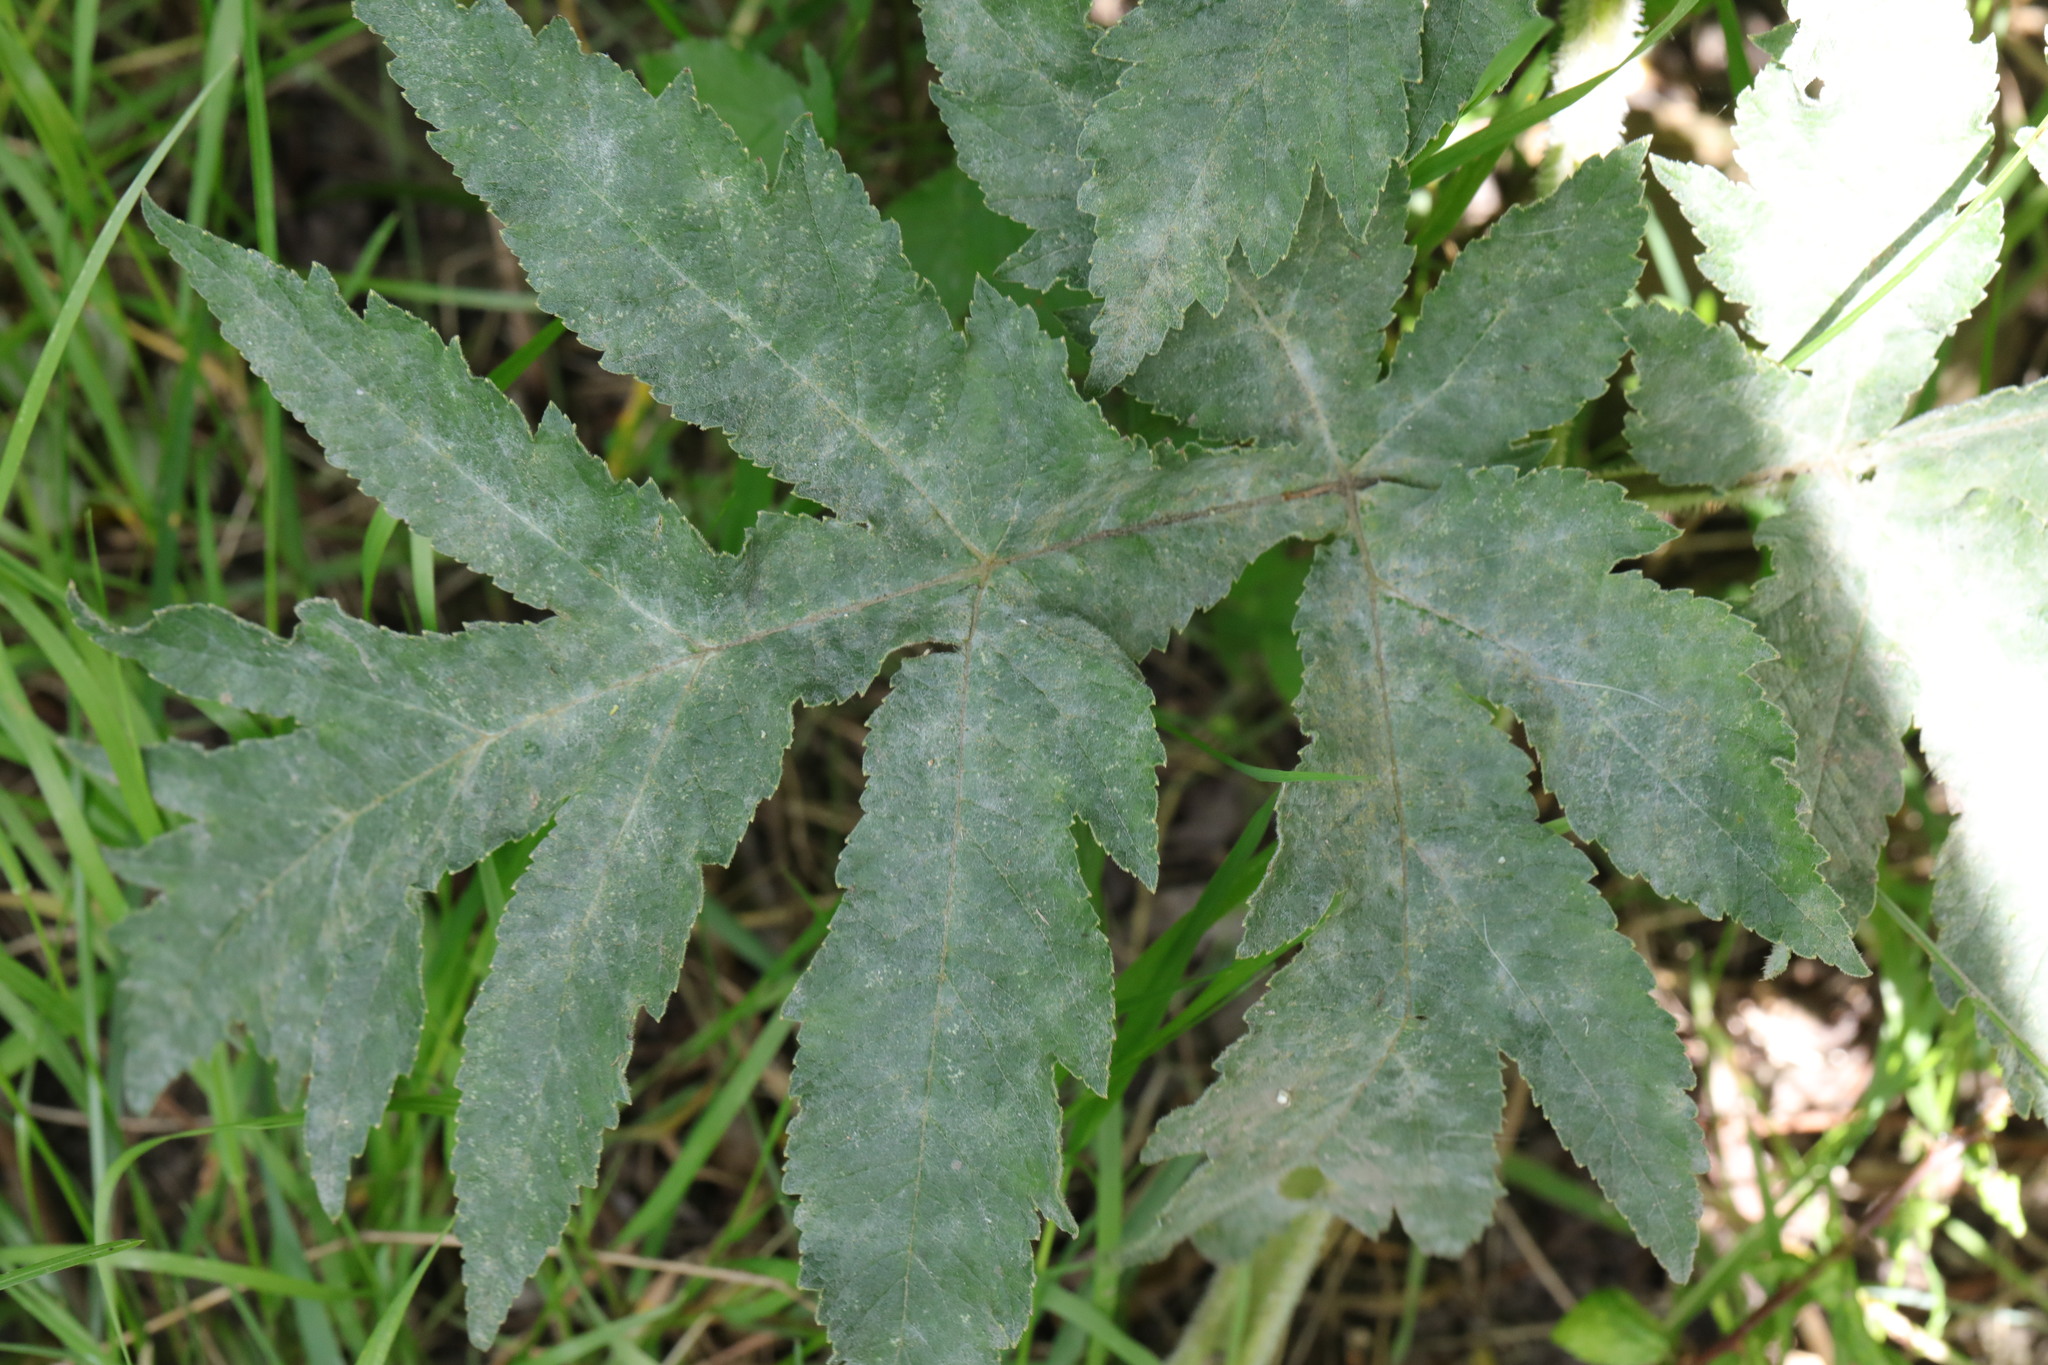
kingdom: Fungi
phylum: Ascomycota
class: Leotiomycetes
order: Helotiales
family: Erysiphaceae
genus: Erysiphe
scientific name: Erysiphe heraclei
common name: Umbellifer mildew
